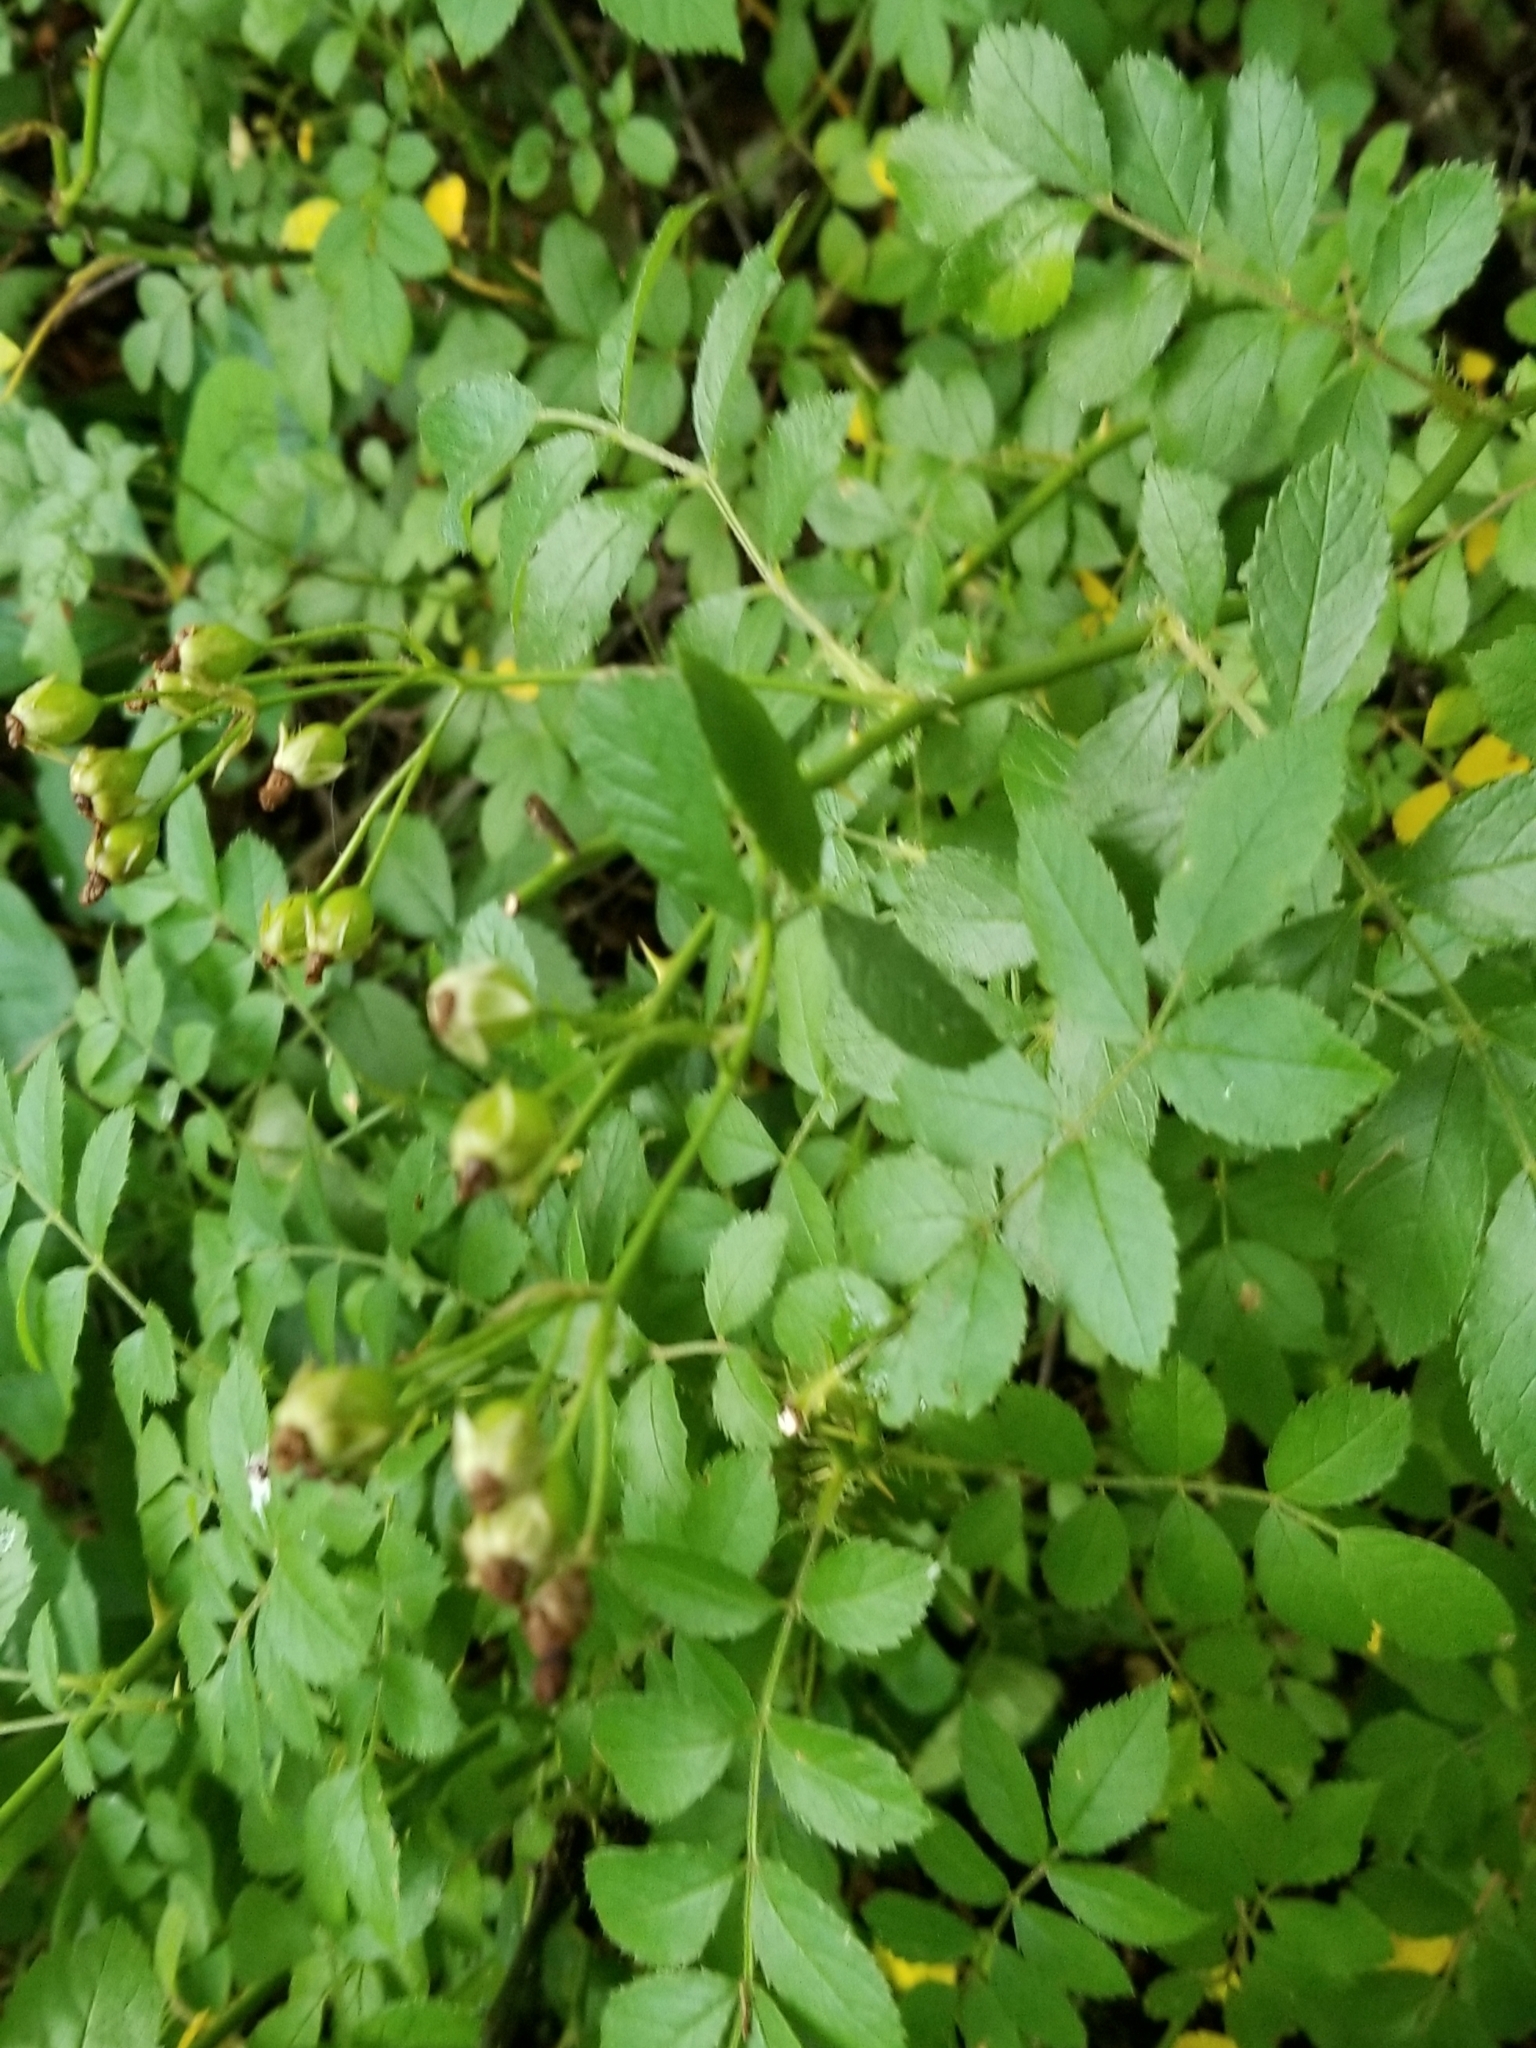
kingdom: Plantae
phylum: Tracheophyta
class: Magnoliopsida
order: Rosales
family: Rosaceae
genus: Rosa
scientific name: Rosa multiflora
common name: Multiflora rose
